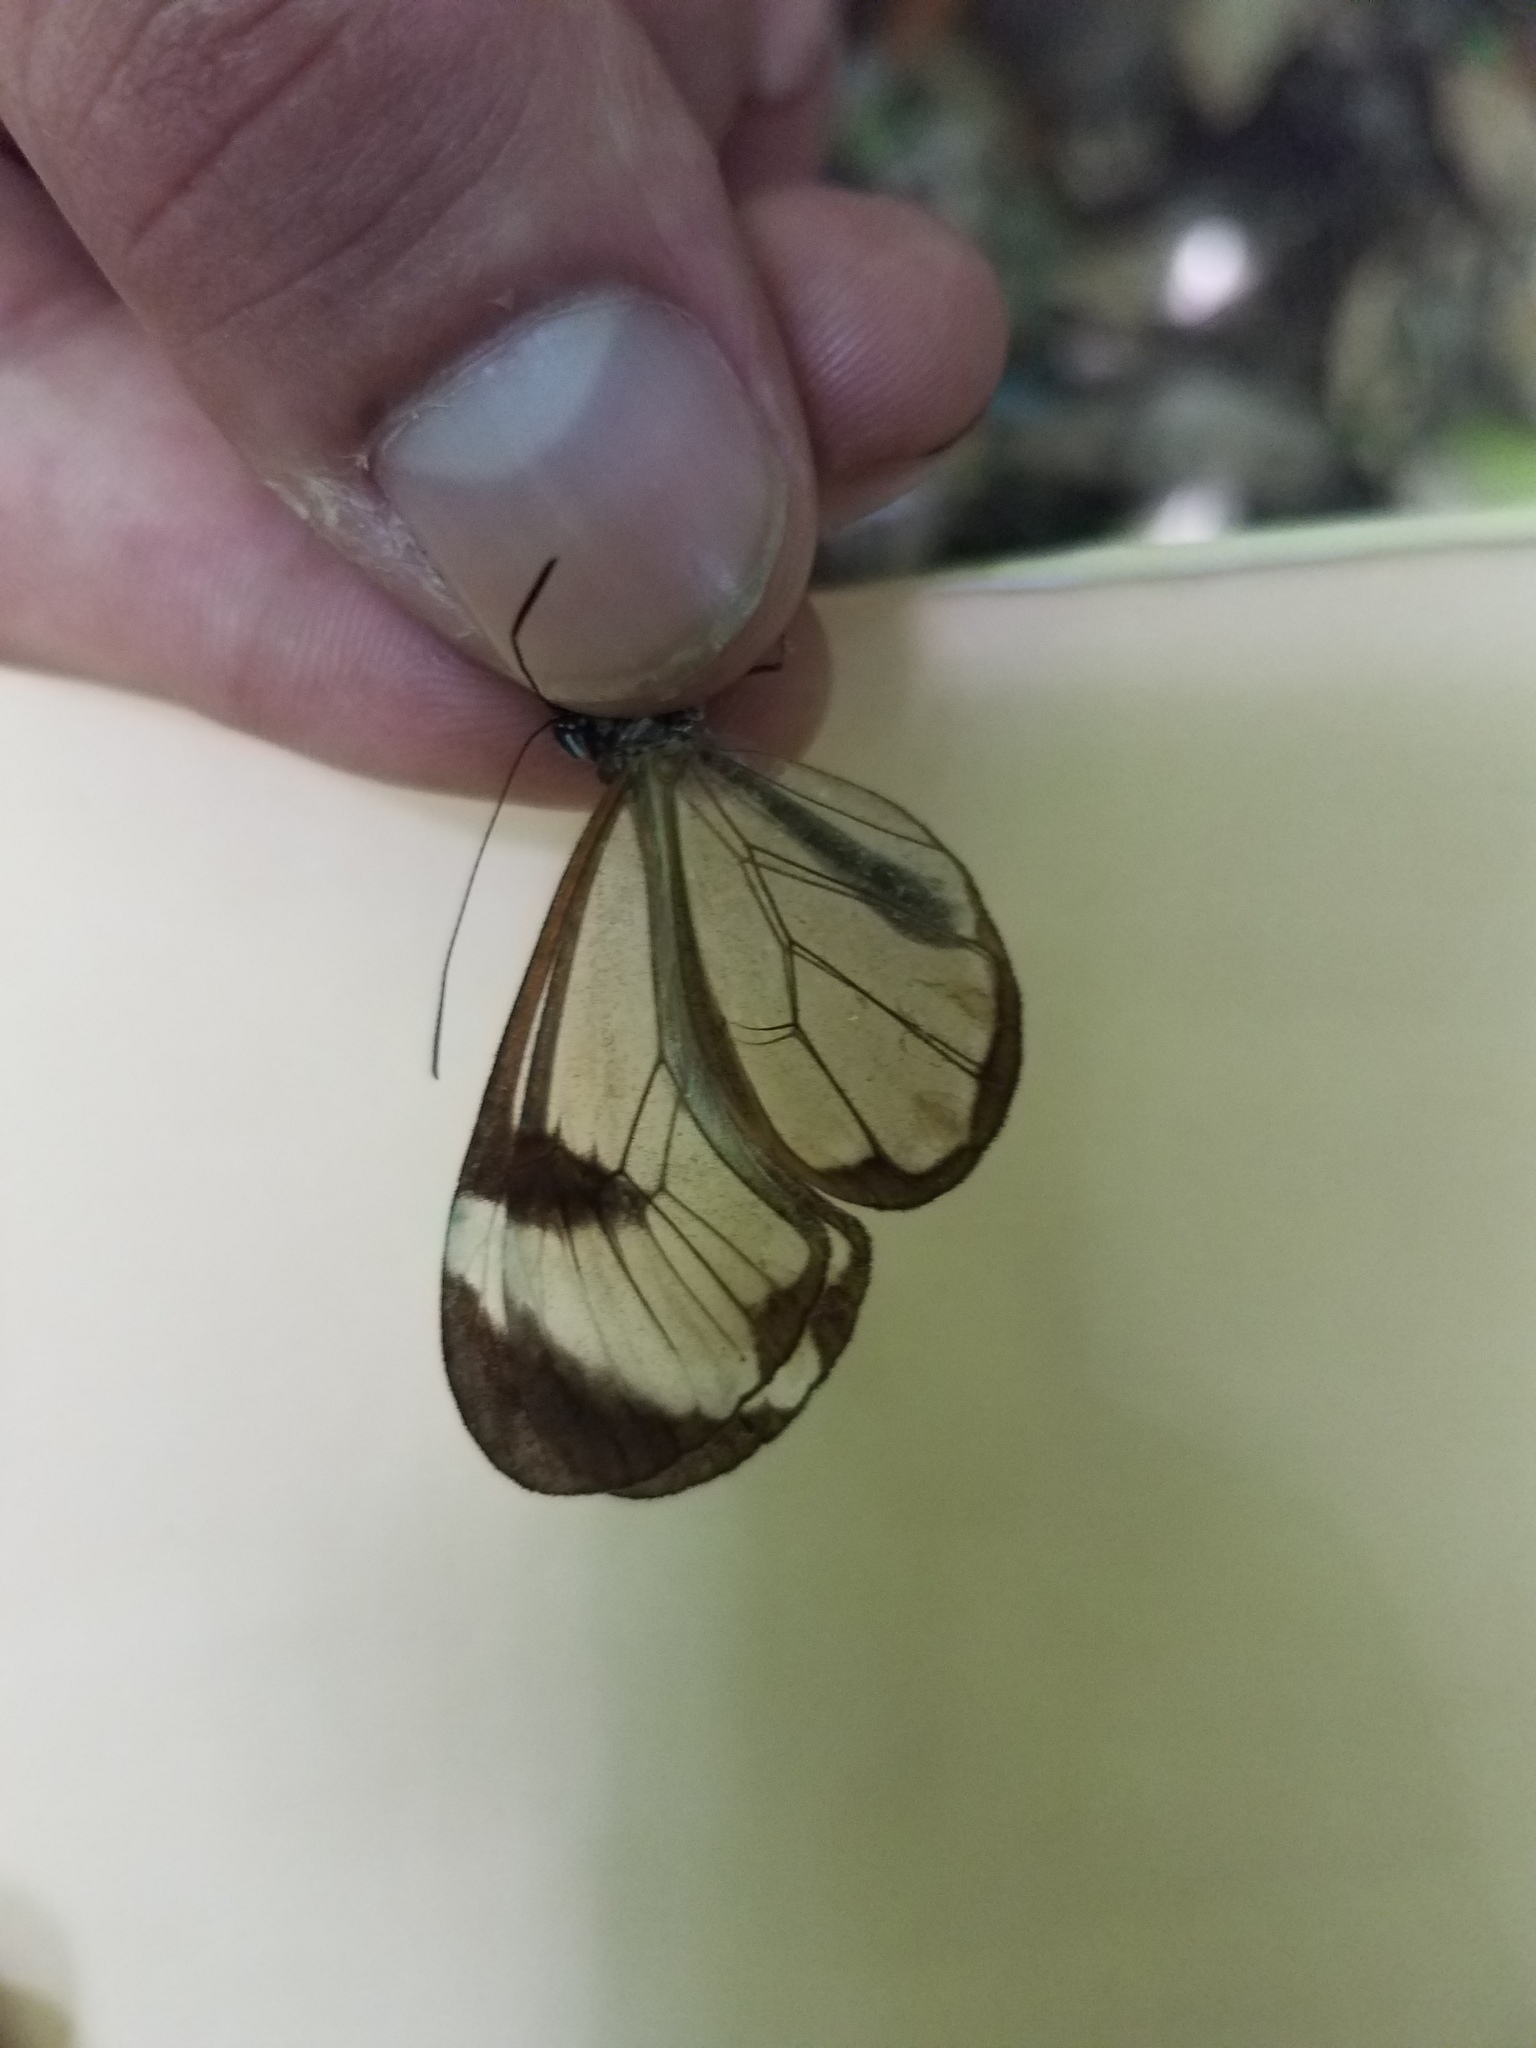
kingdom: Animalia
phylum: Arthropoda
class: Insecta
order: Lepidoptera
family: Nymphalidae
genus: Greta
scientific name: Greta morgane
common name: Thick-tipped greta
